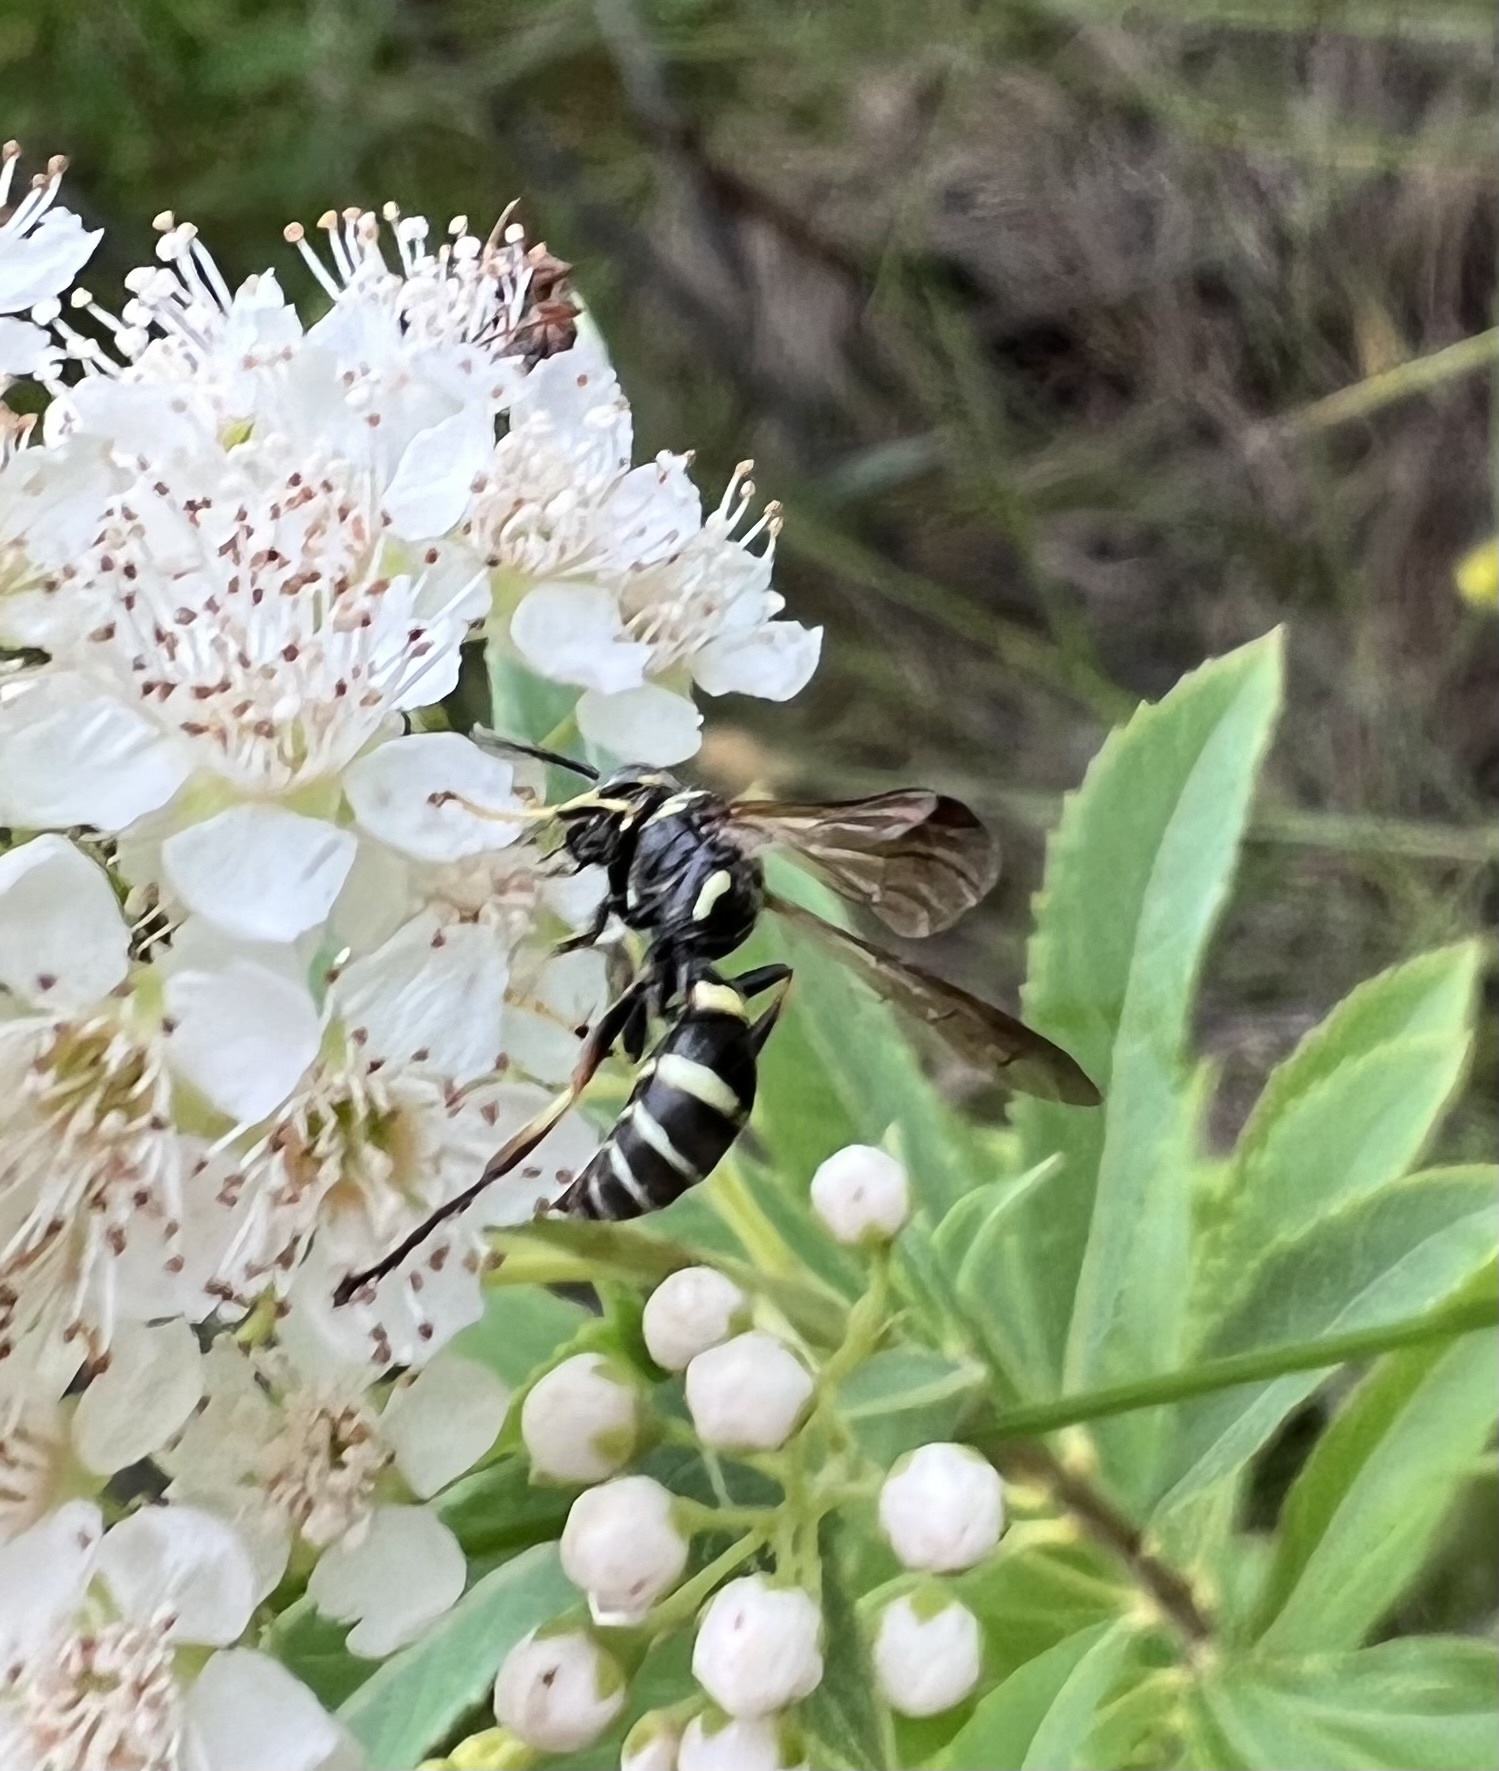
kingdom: Animalia
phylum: Arthropoda
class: Insecta
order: Hymenoptera
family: Crabronidae
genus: Saygorytes
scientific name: Saygorytes phaleratus
